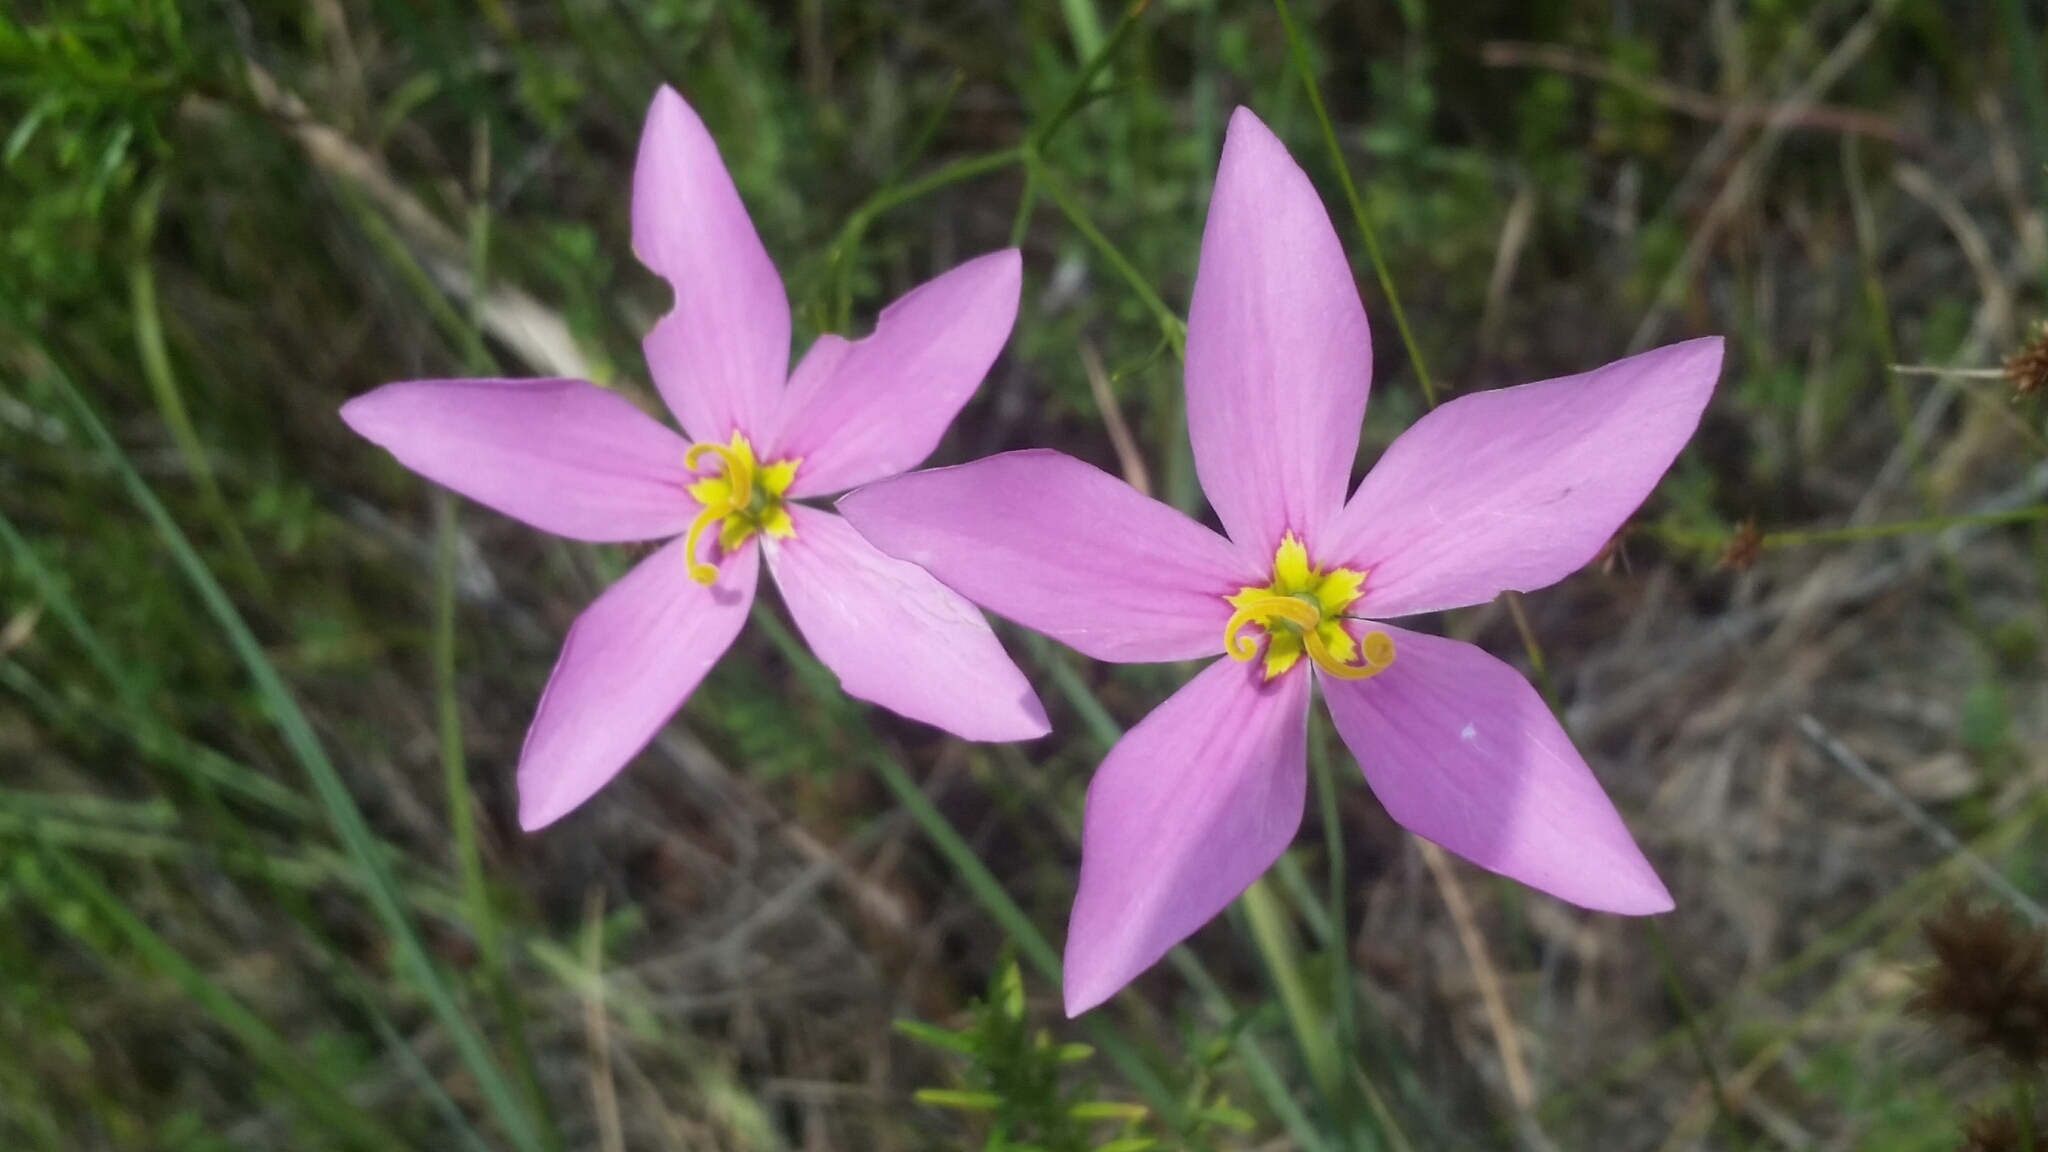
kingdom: Plantae
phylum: Tracheophyta
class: Magnoliopsida
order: Gentianales
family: Gentianaceae
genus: Sabatia
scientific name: Sabatia grandiflora
